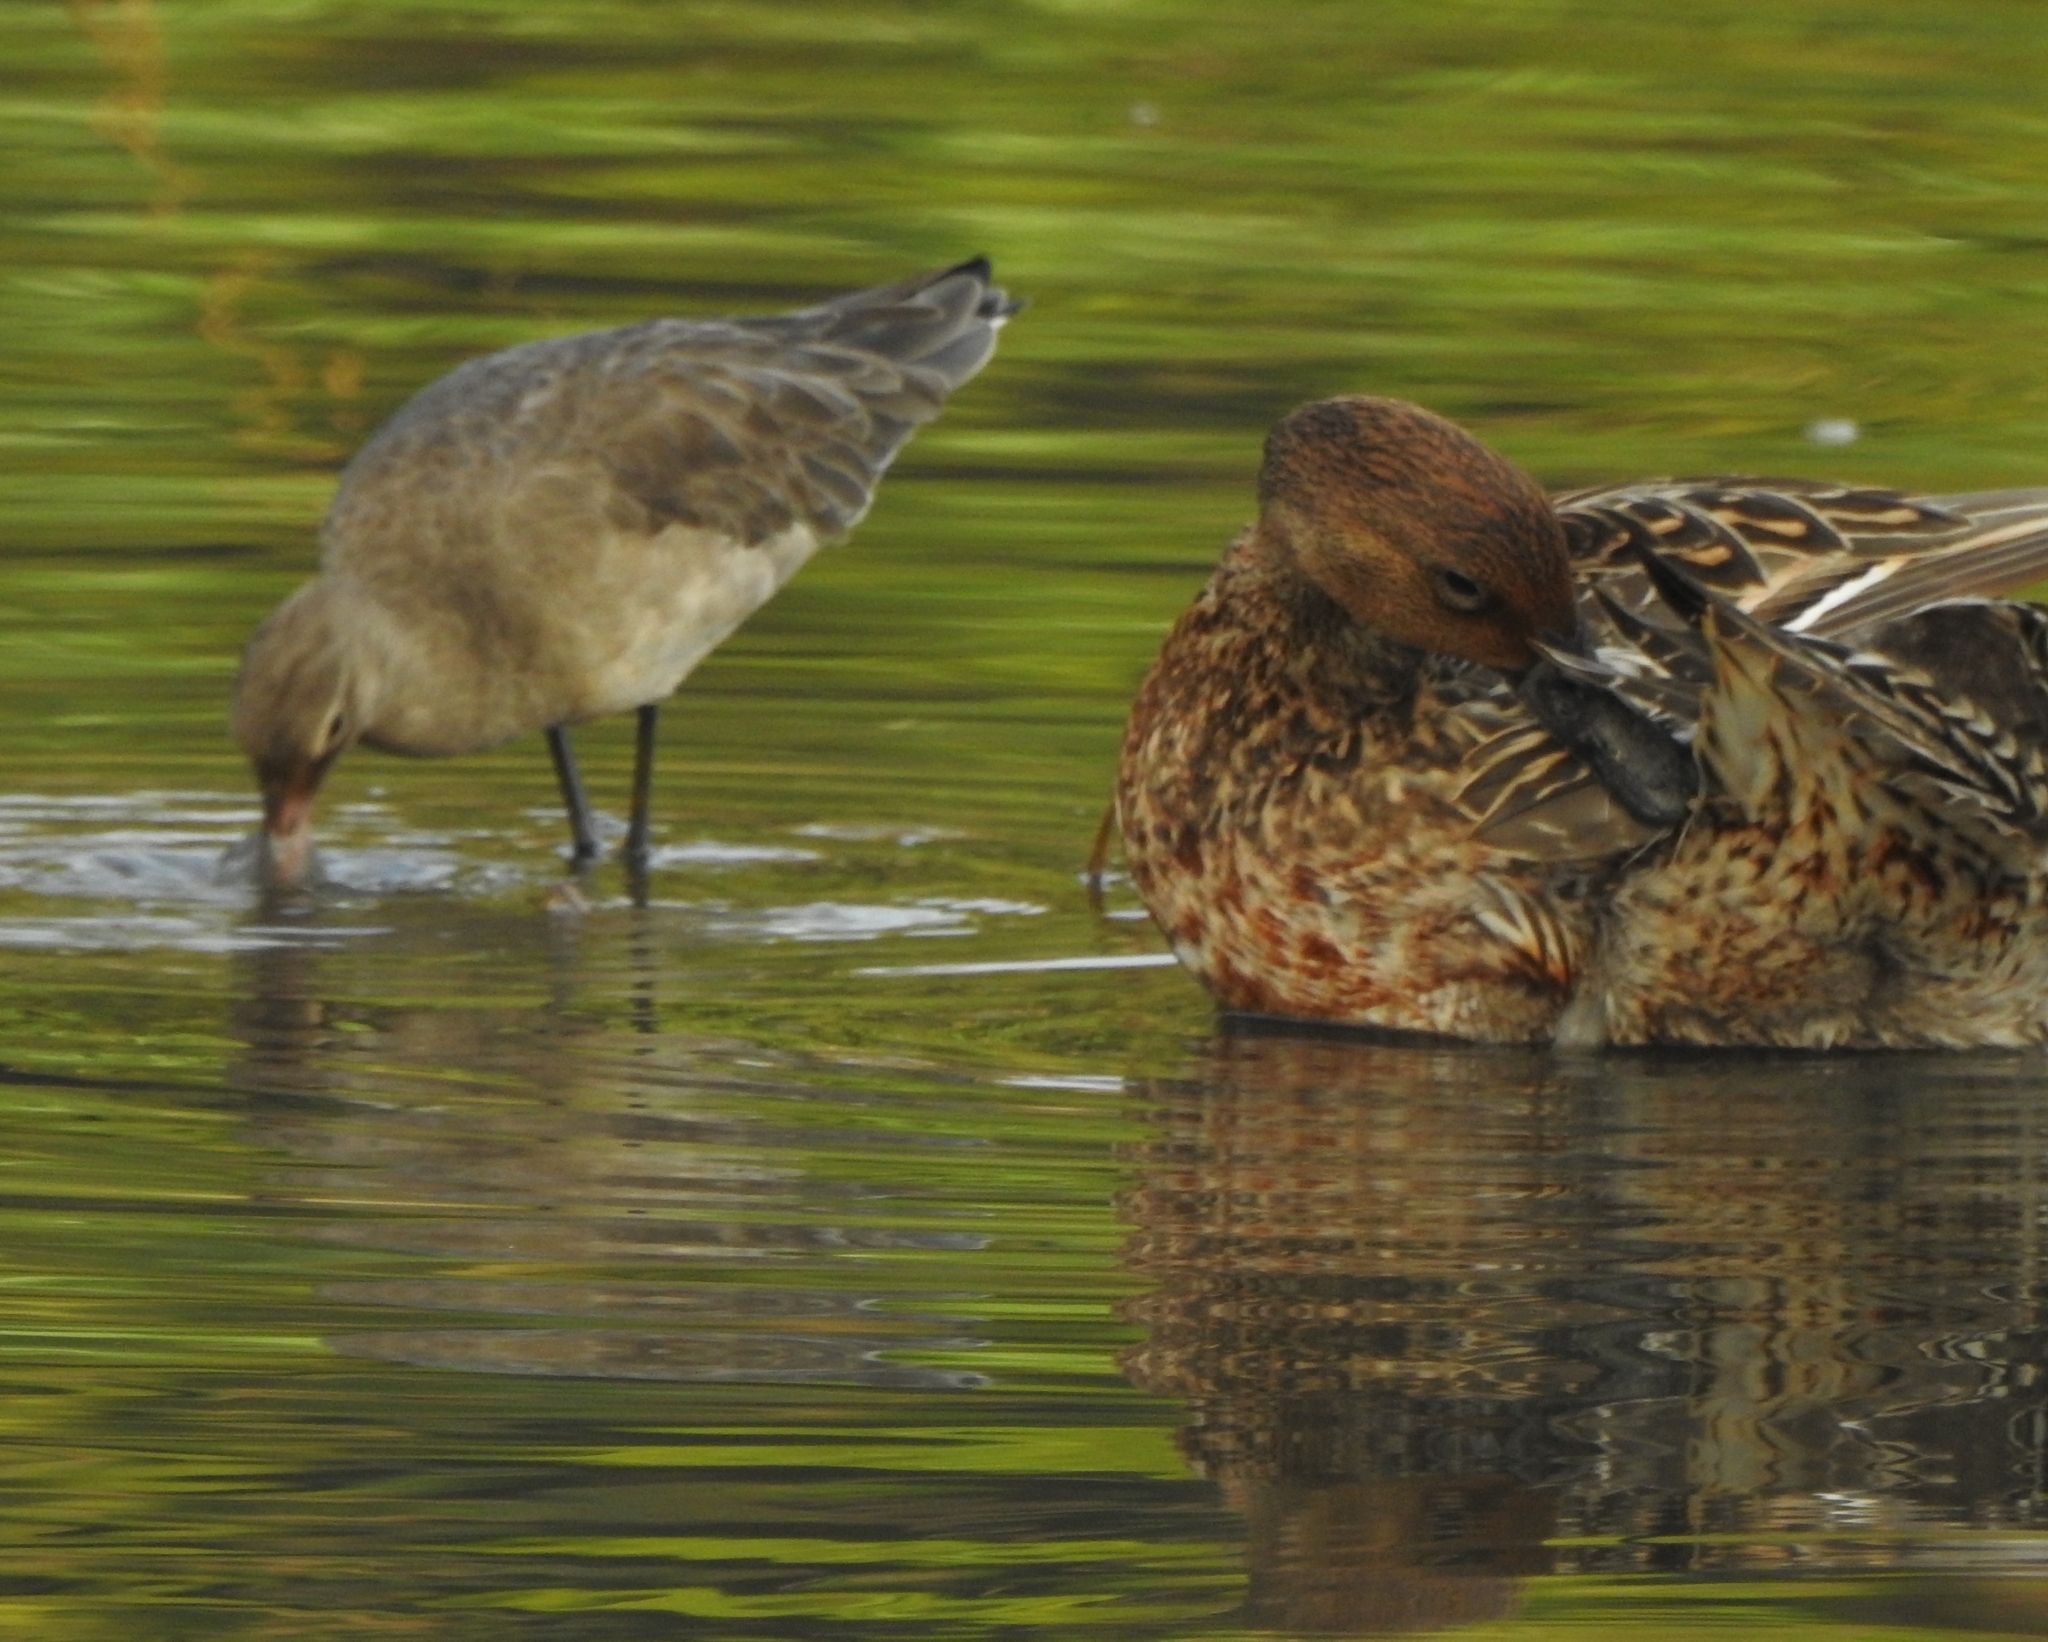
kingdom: Animalia
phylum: Chordata
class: Aves
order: Anseriformes
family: Anatidae
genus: Anas
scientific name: Anas acuta
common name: Northern pintail
